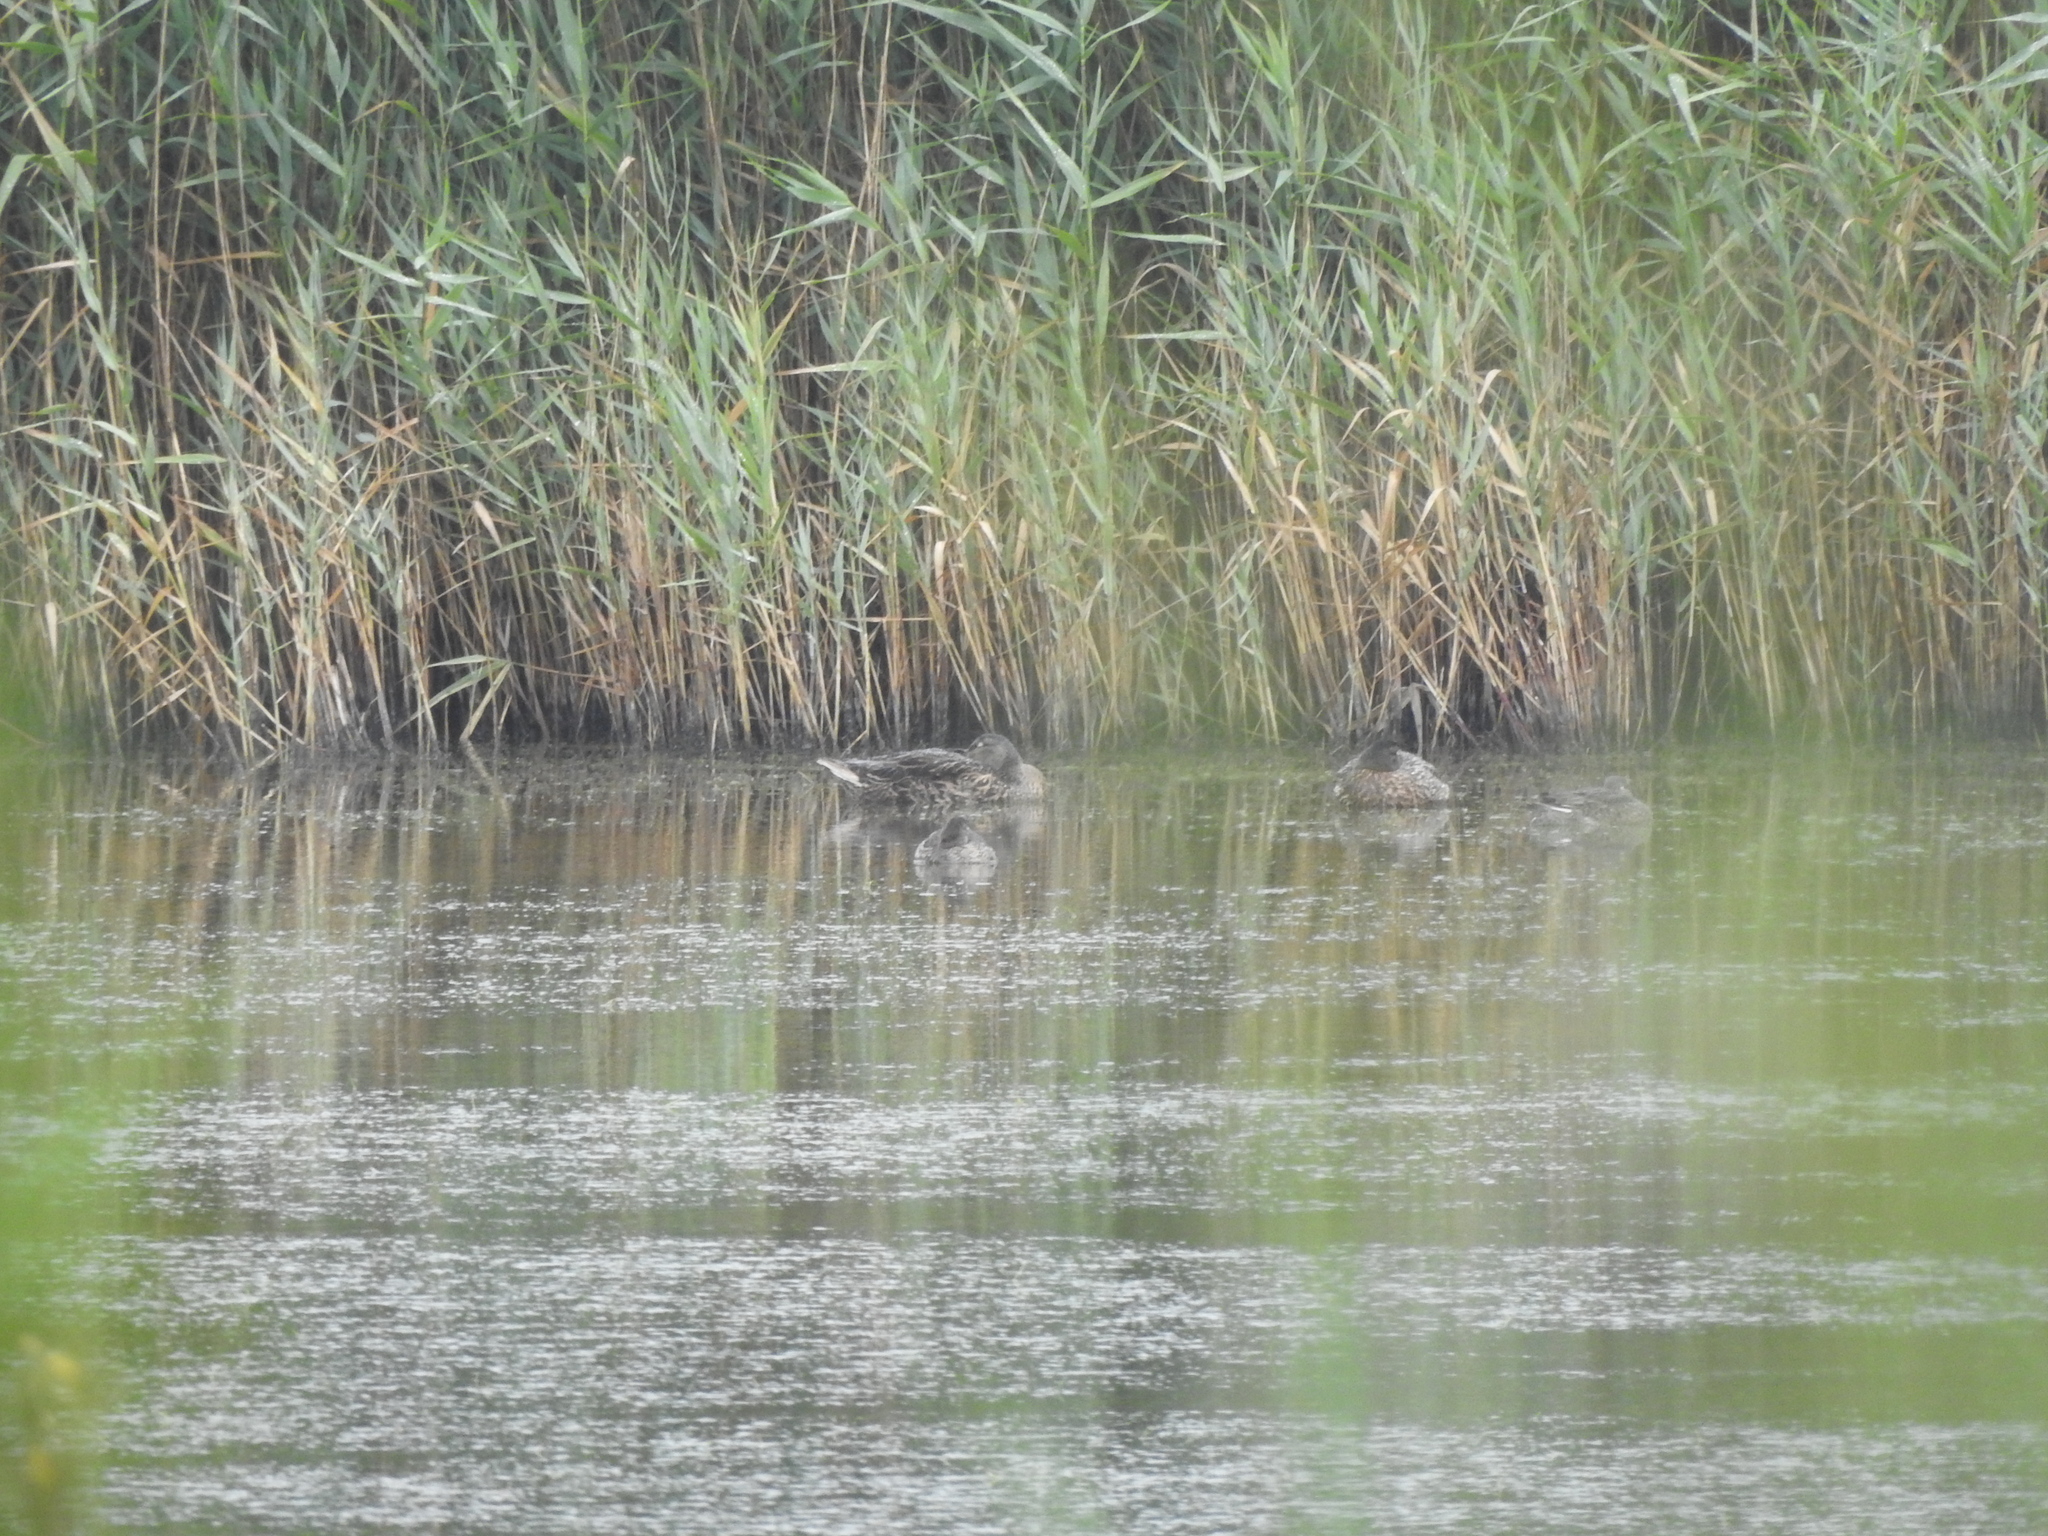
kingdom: Animalia
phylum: Chordata
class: Aves
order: Anseriformes
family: Anatidae
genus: Anas
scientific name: Anas platyrhynchos
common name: Mallard
